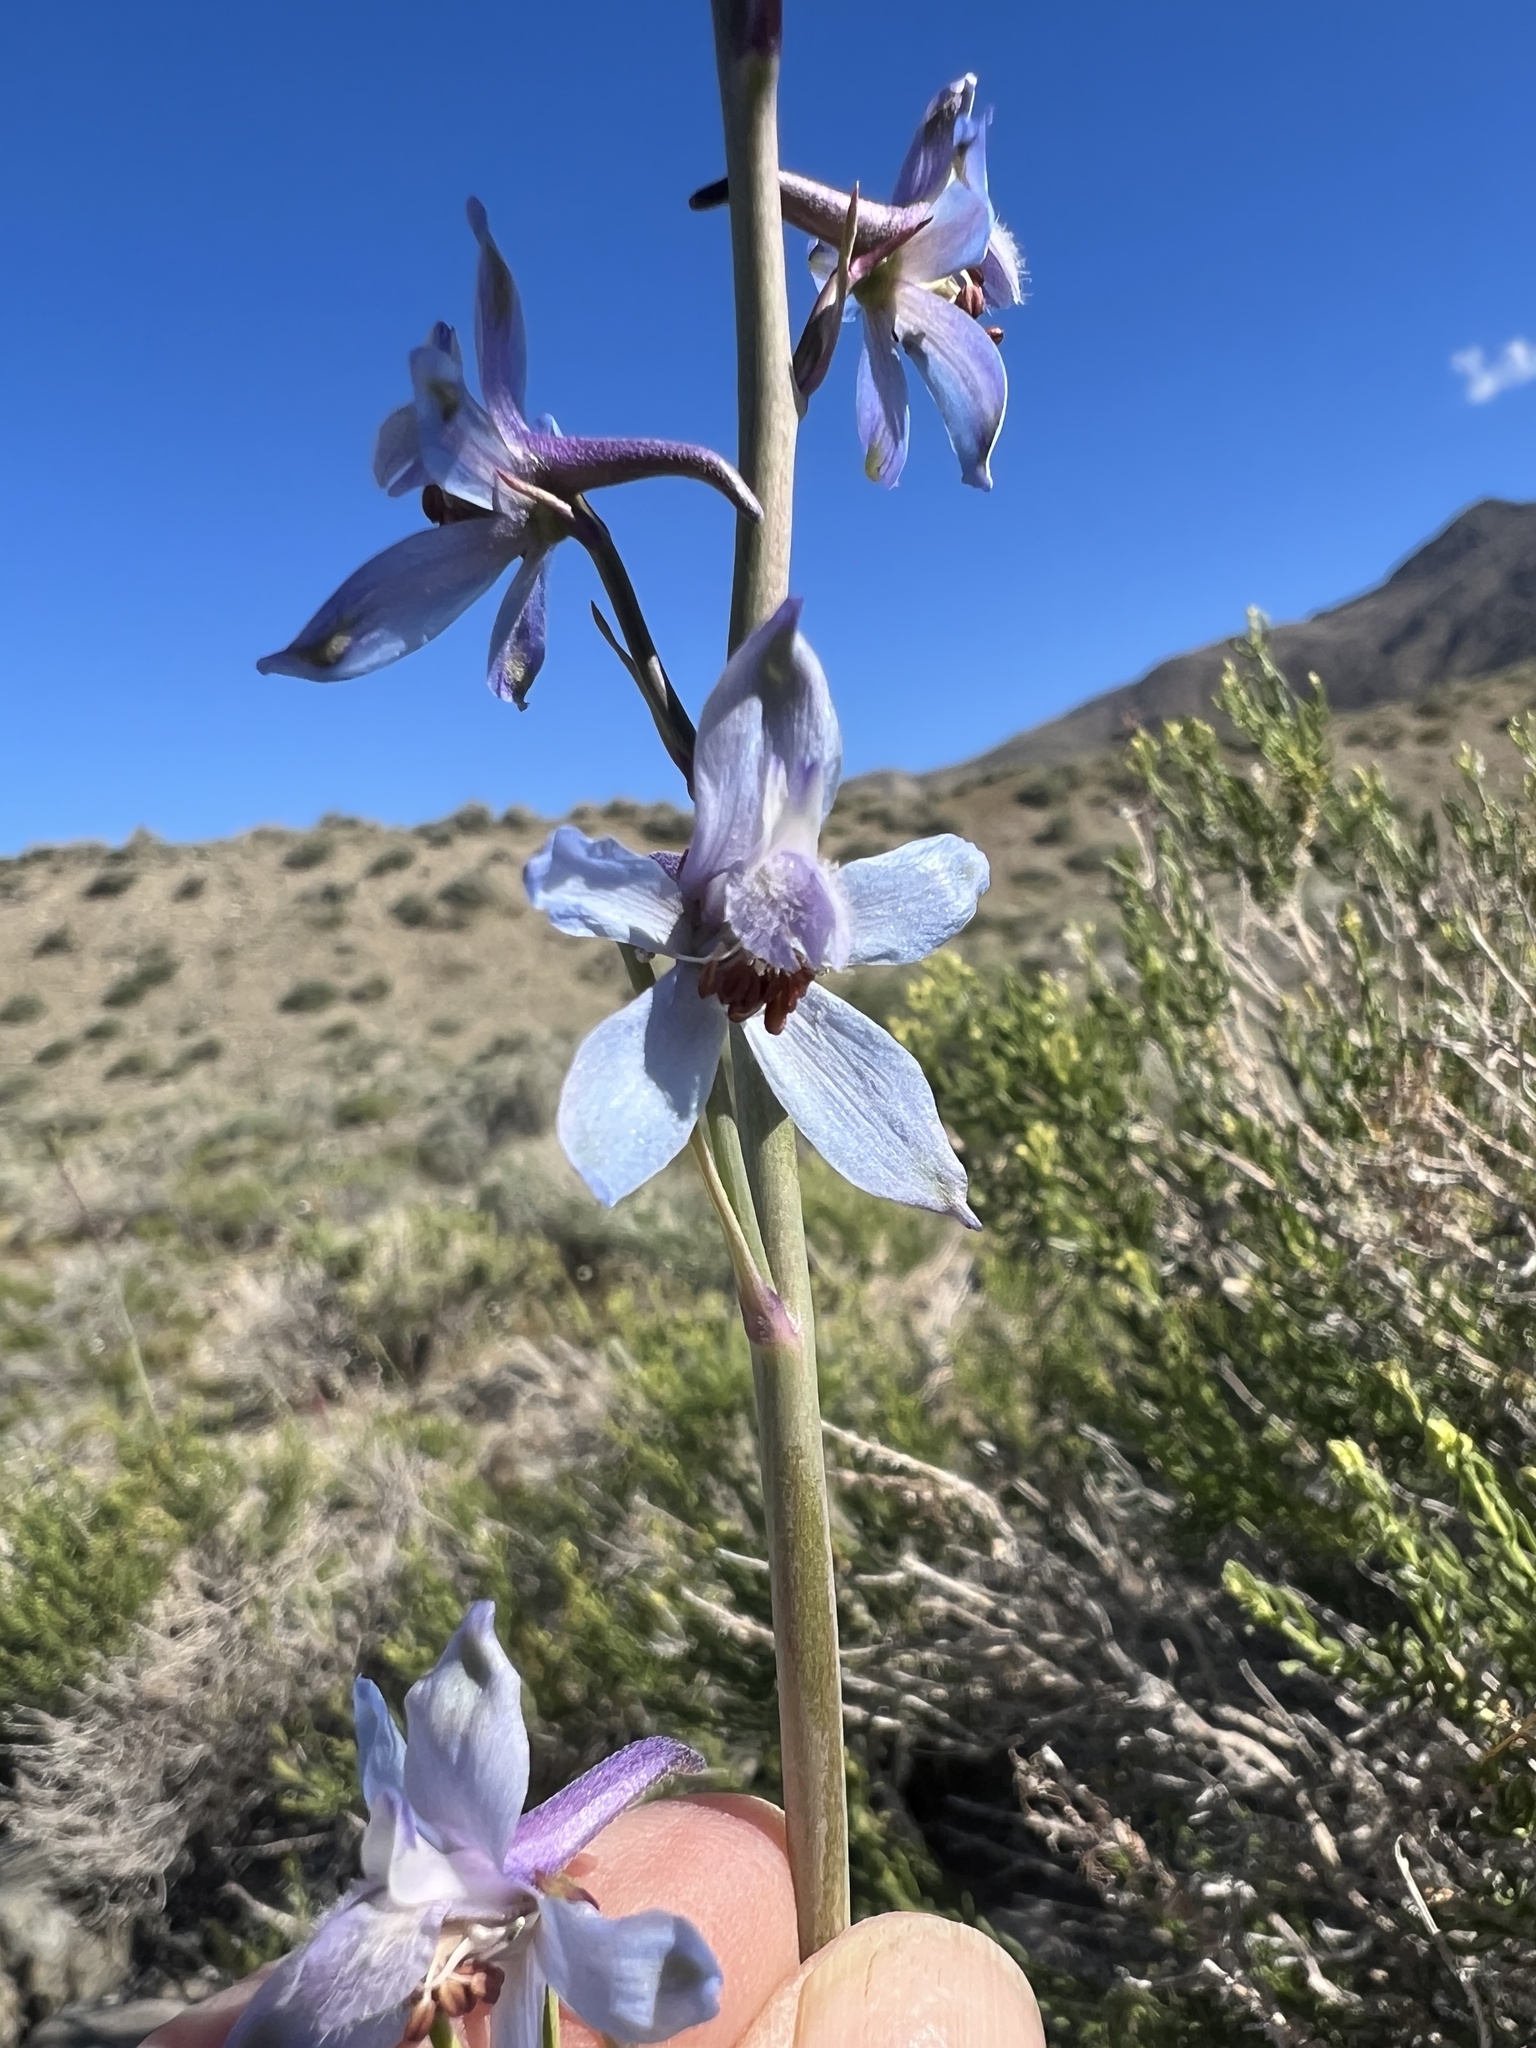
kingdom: Plantae
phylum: Tracheophyta
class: Magnoliopsida
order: Ranunculales
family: Ranunculaceae
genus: Delphinium
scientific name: Delphinium parishii
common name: Apache larkspur
